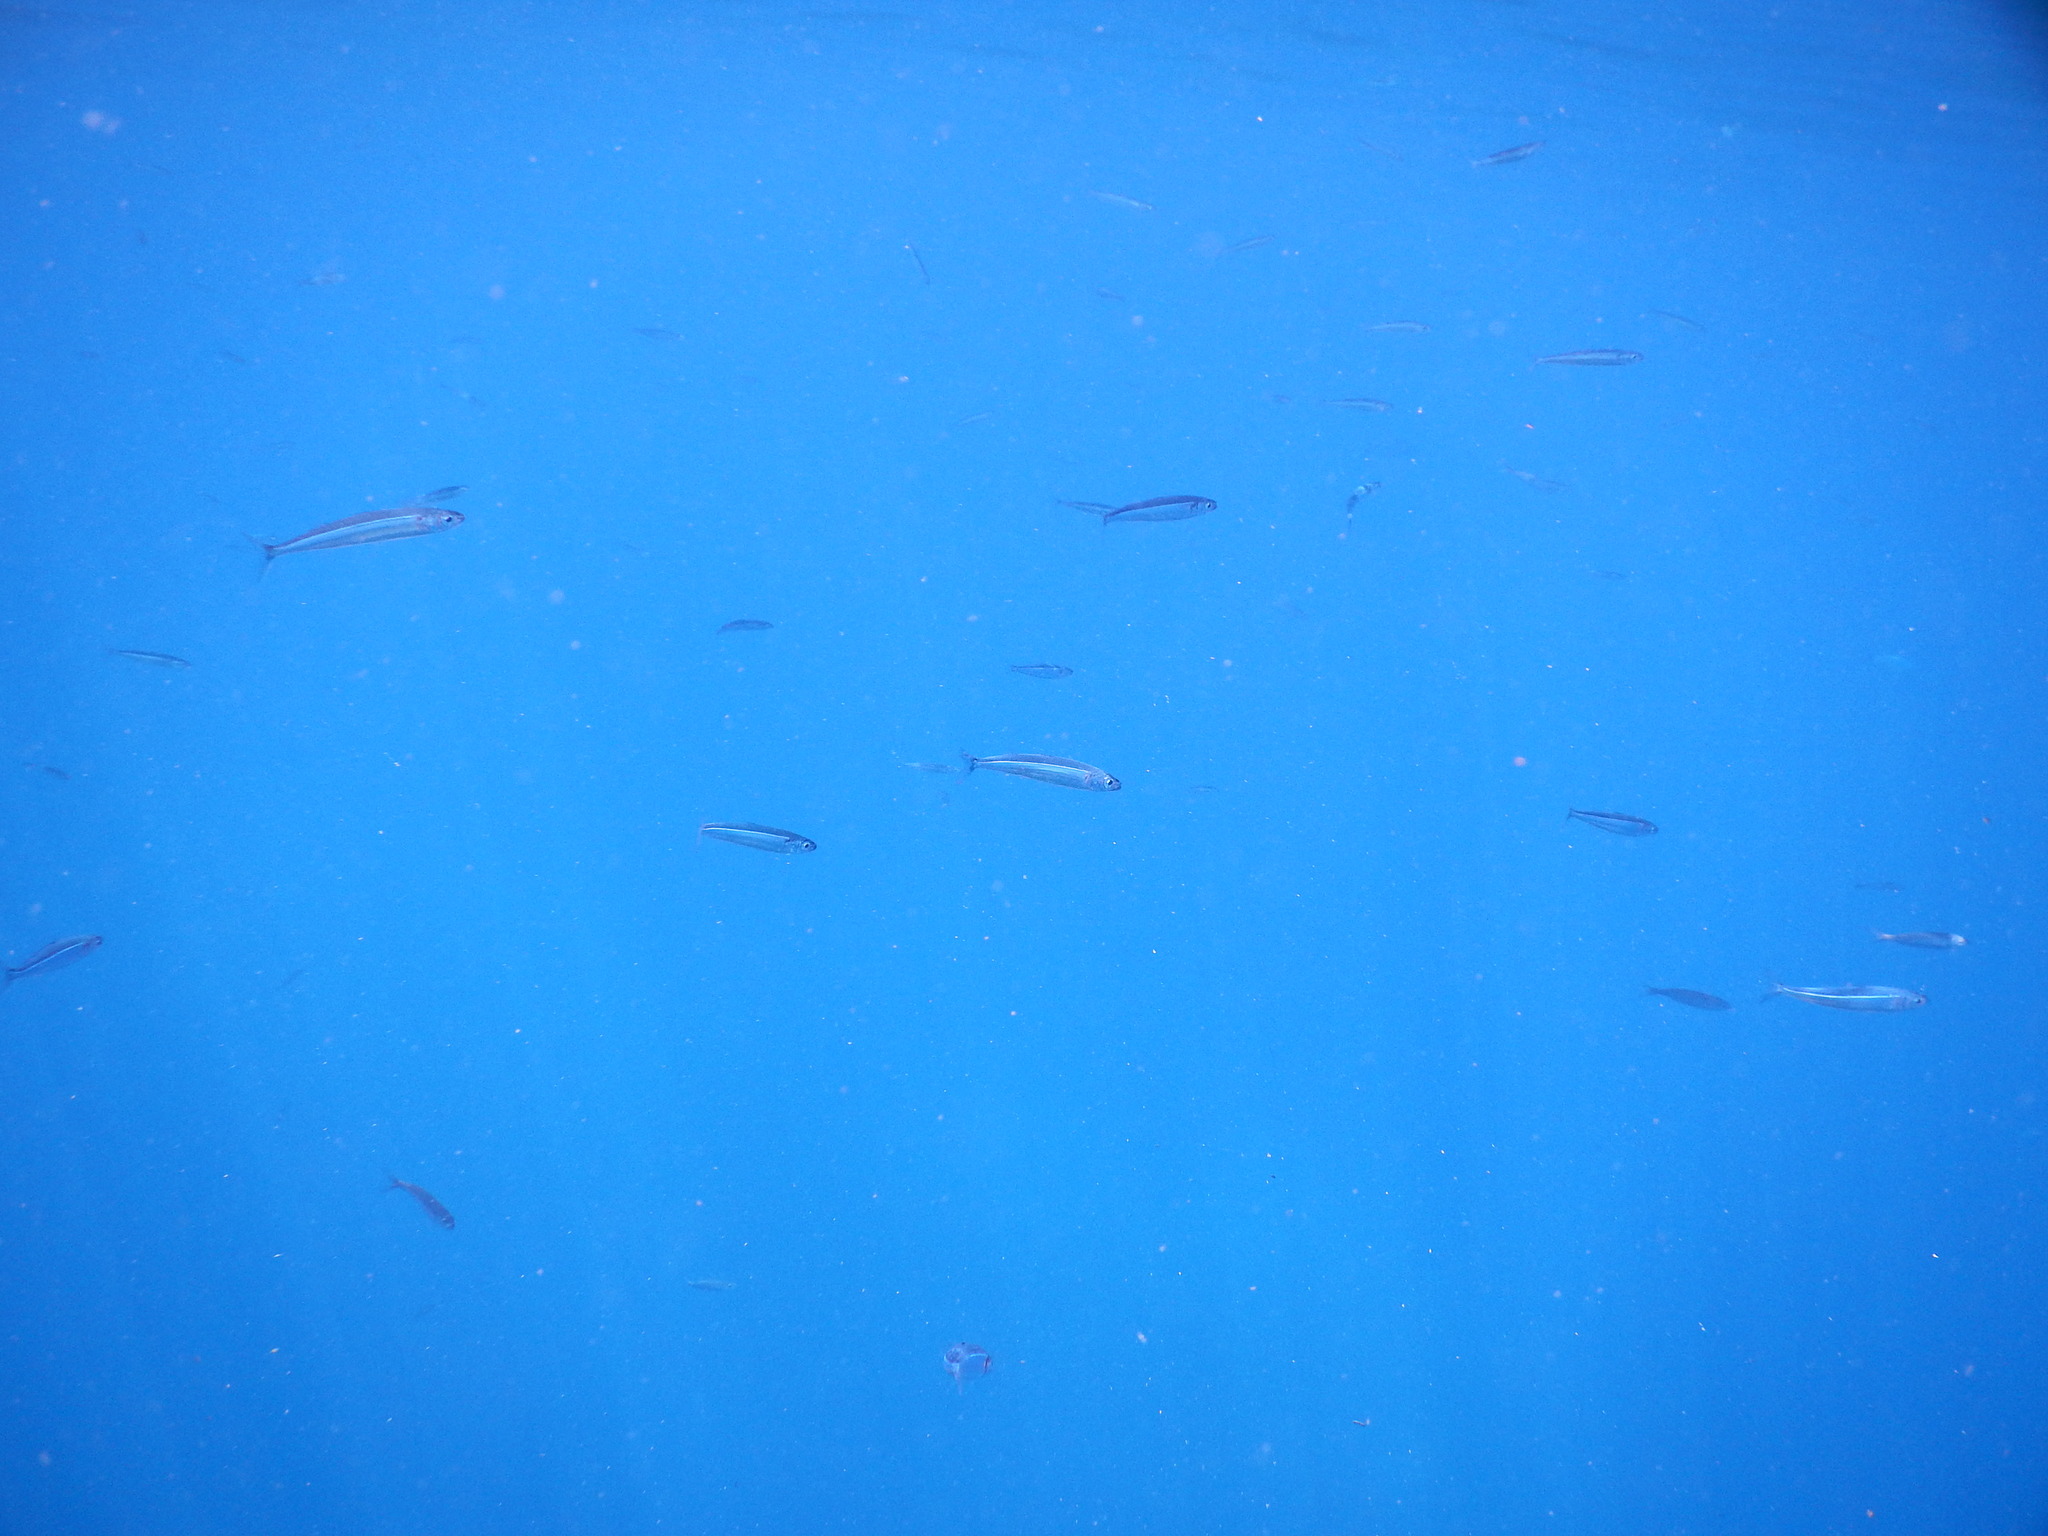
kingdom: Animalia
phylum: Chordata
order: Atheriniformes
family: Atherinidae
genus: Atherina
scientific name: Atherina hepsetus
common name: Mediterranean sand smelt
